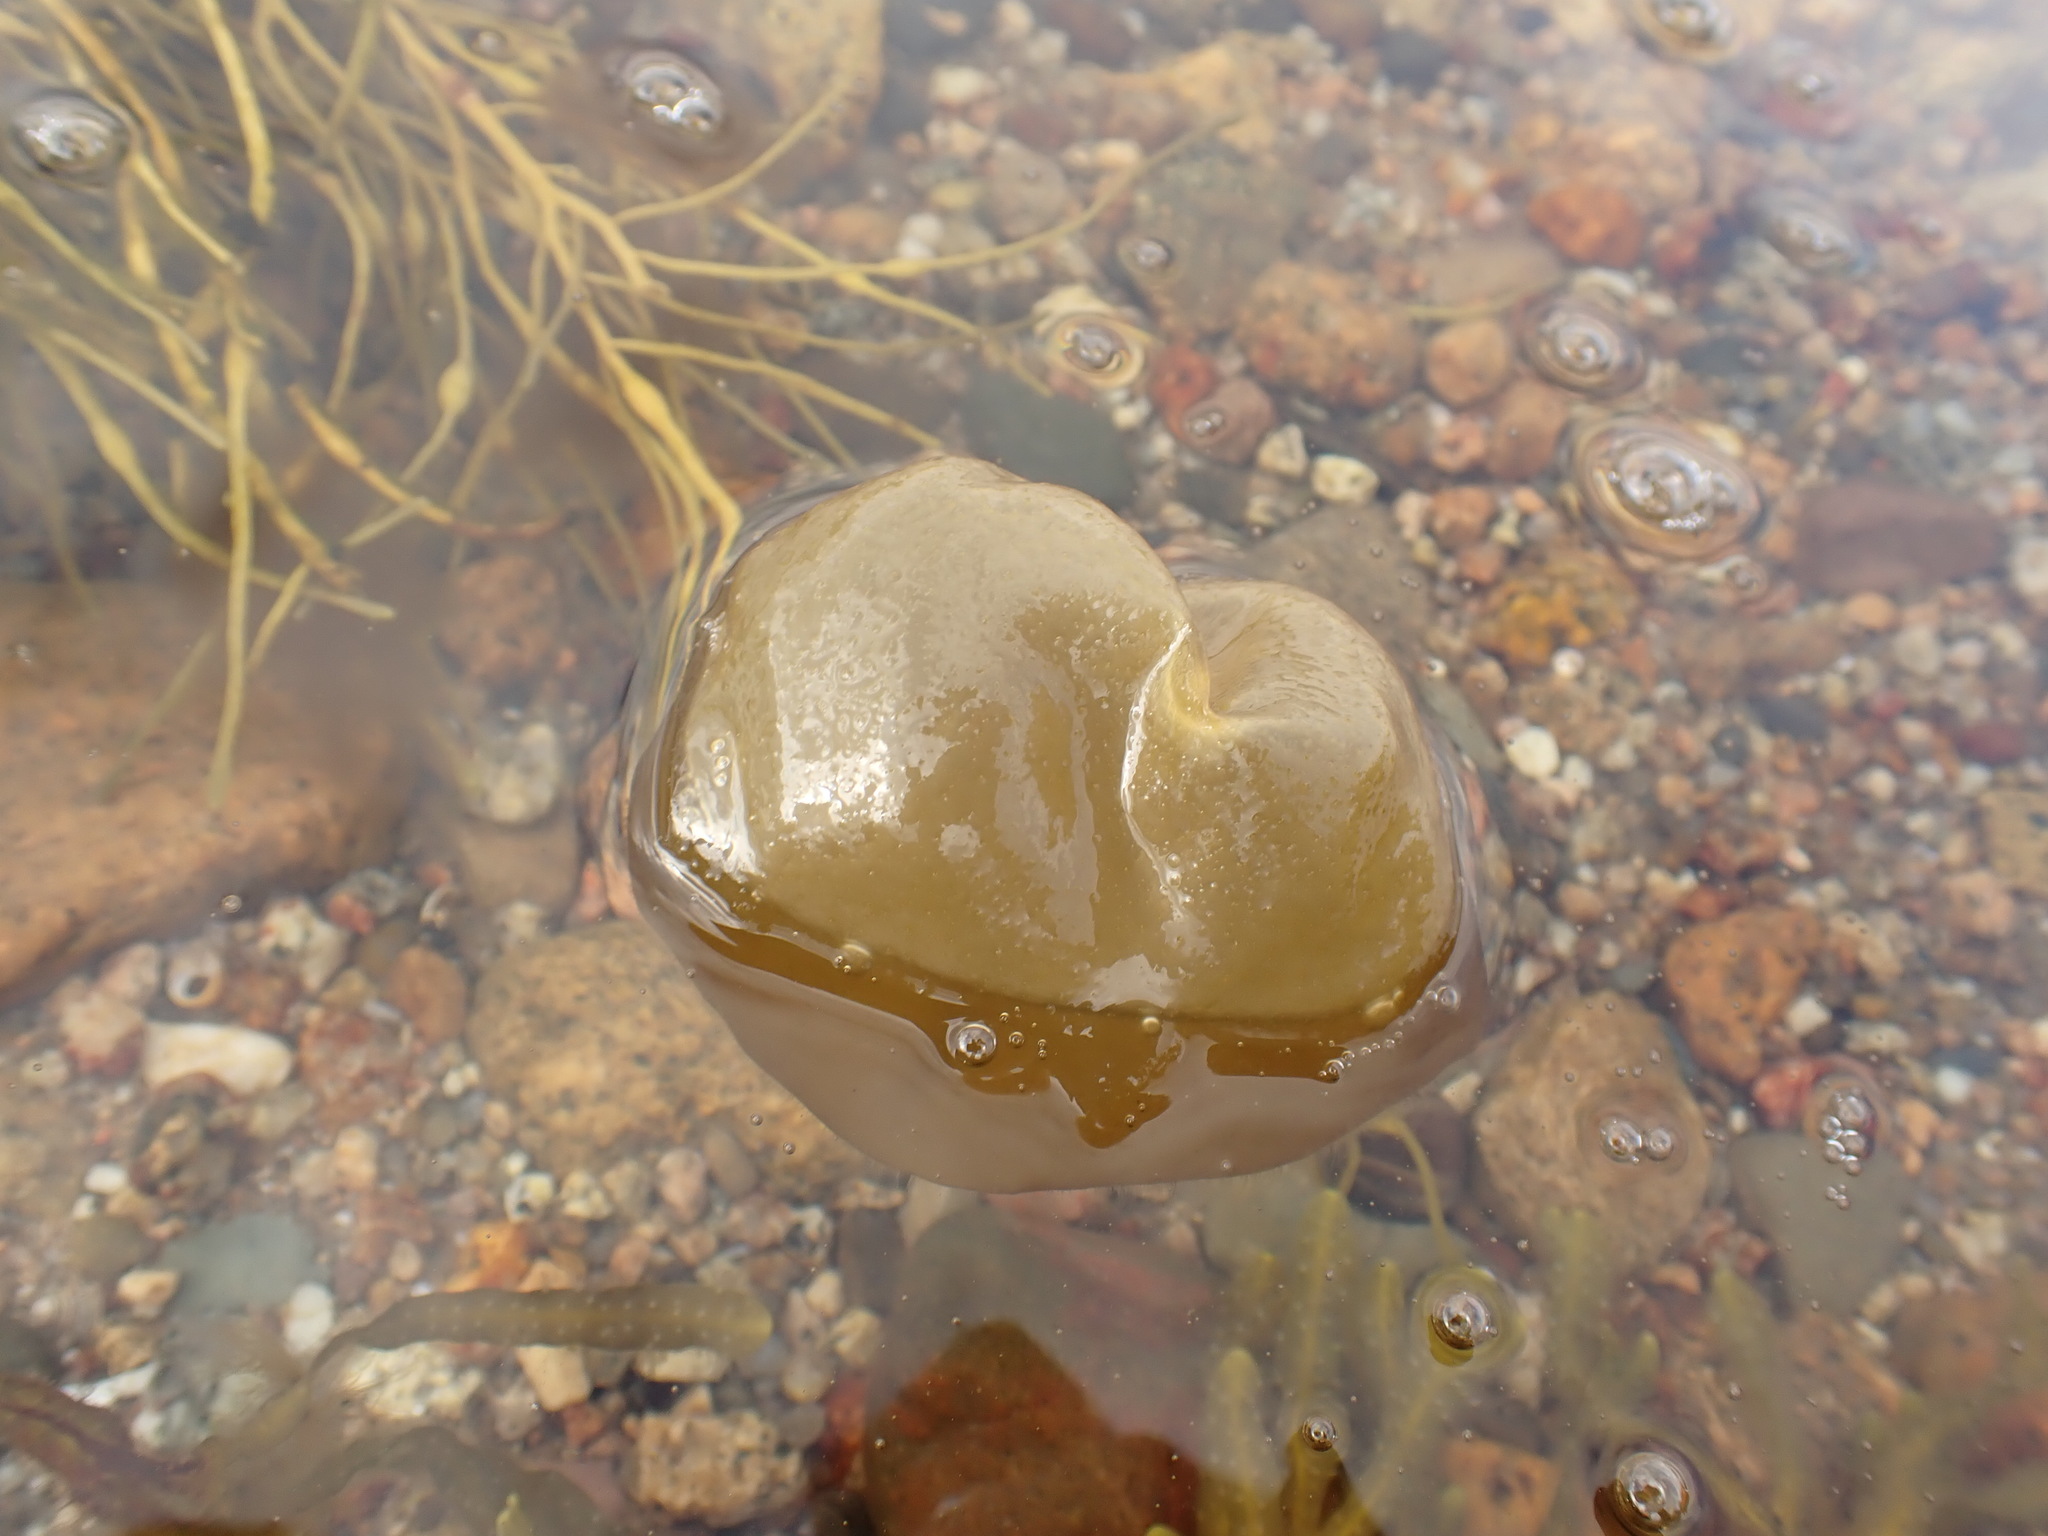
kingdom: Chromista
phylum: Ochrophyta
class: Phaeophyceae
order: Scytosiphonales
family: Scytosiphonaceae
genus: Colpomenia
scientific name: Colpomenia peregrina
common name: Oyster thief
